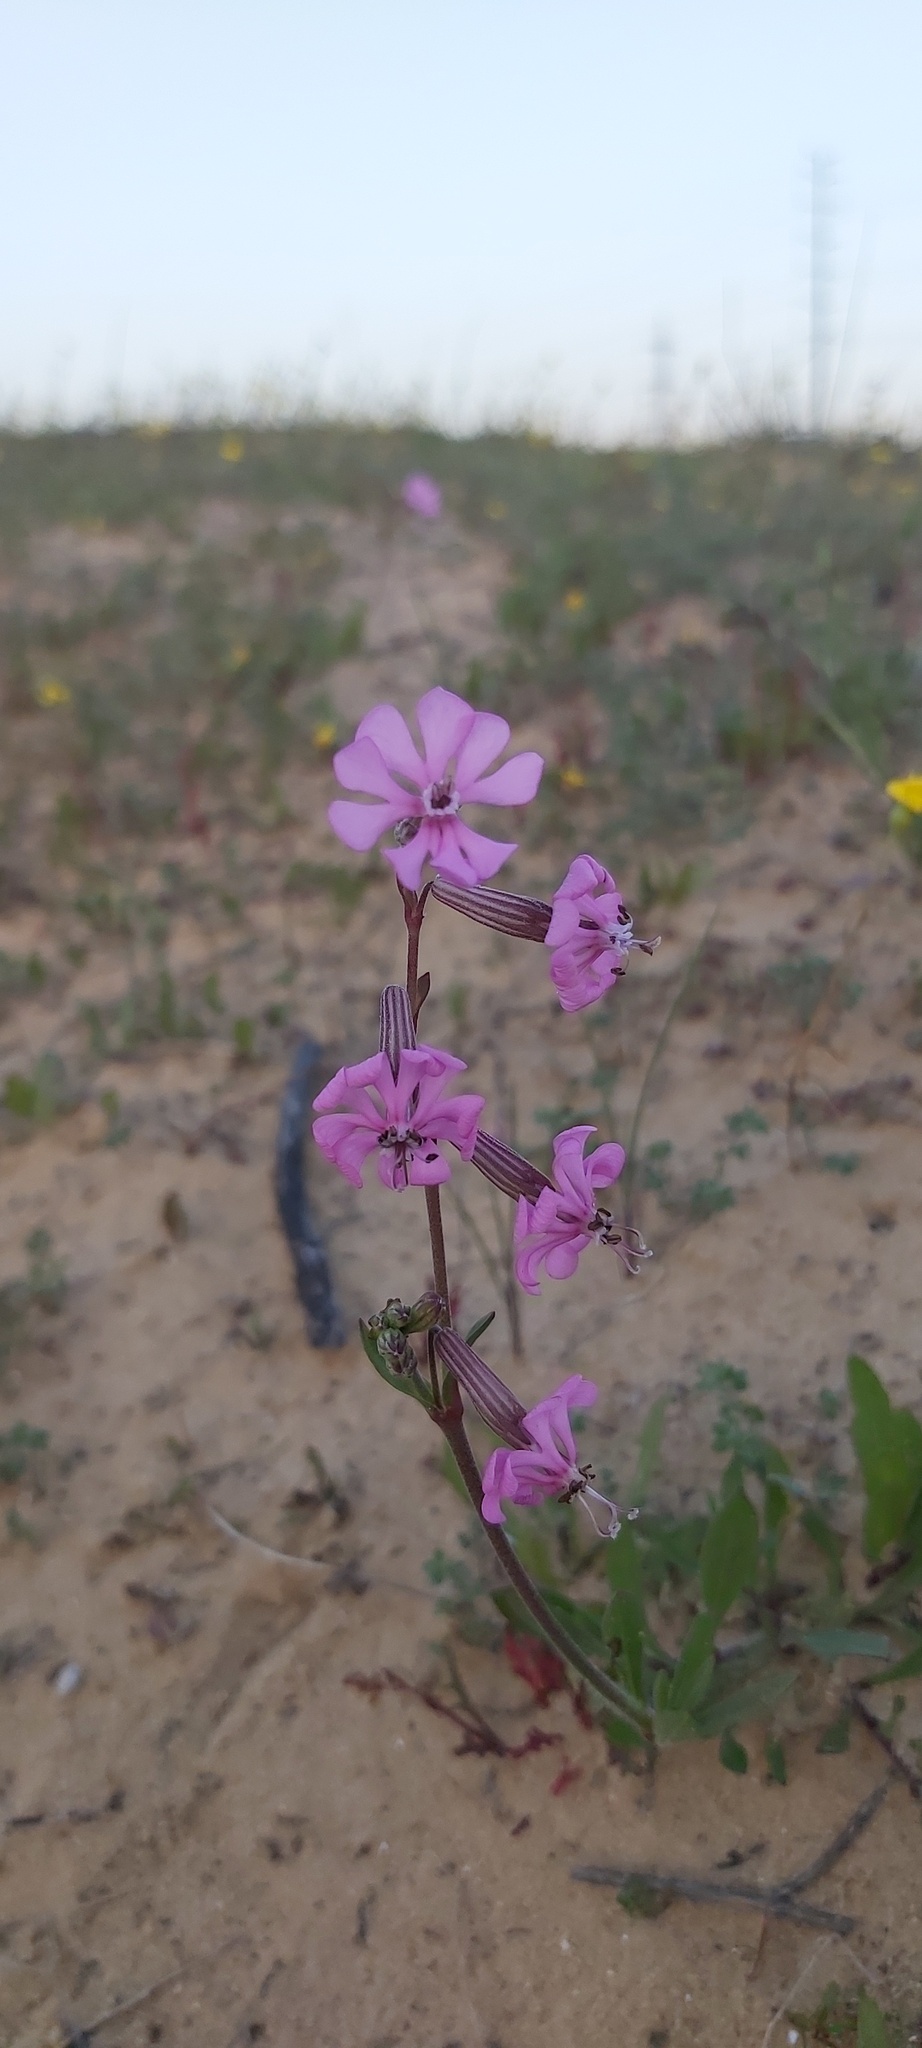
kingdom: Plantae
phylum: Tracheophyta
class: Magnoliopsida
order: Caryophyllales
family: Caryophyllaceae
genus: Silene
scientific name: Silene colorata
